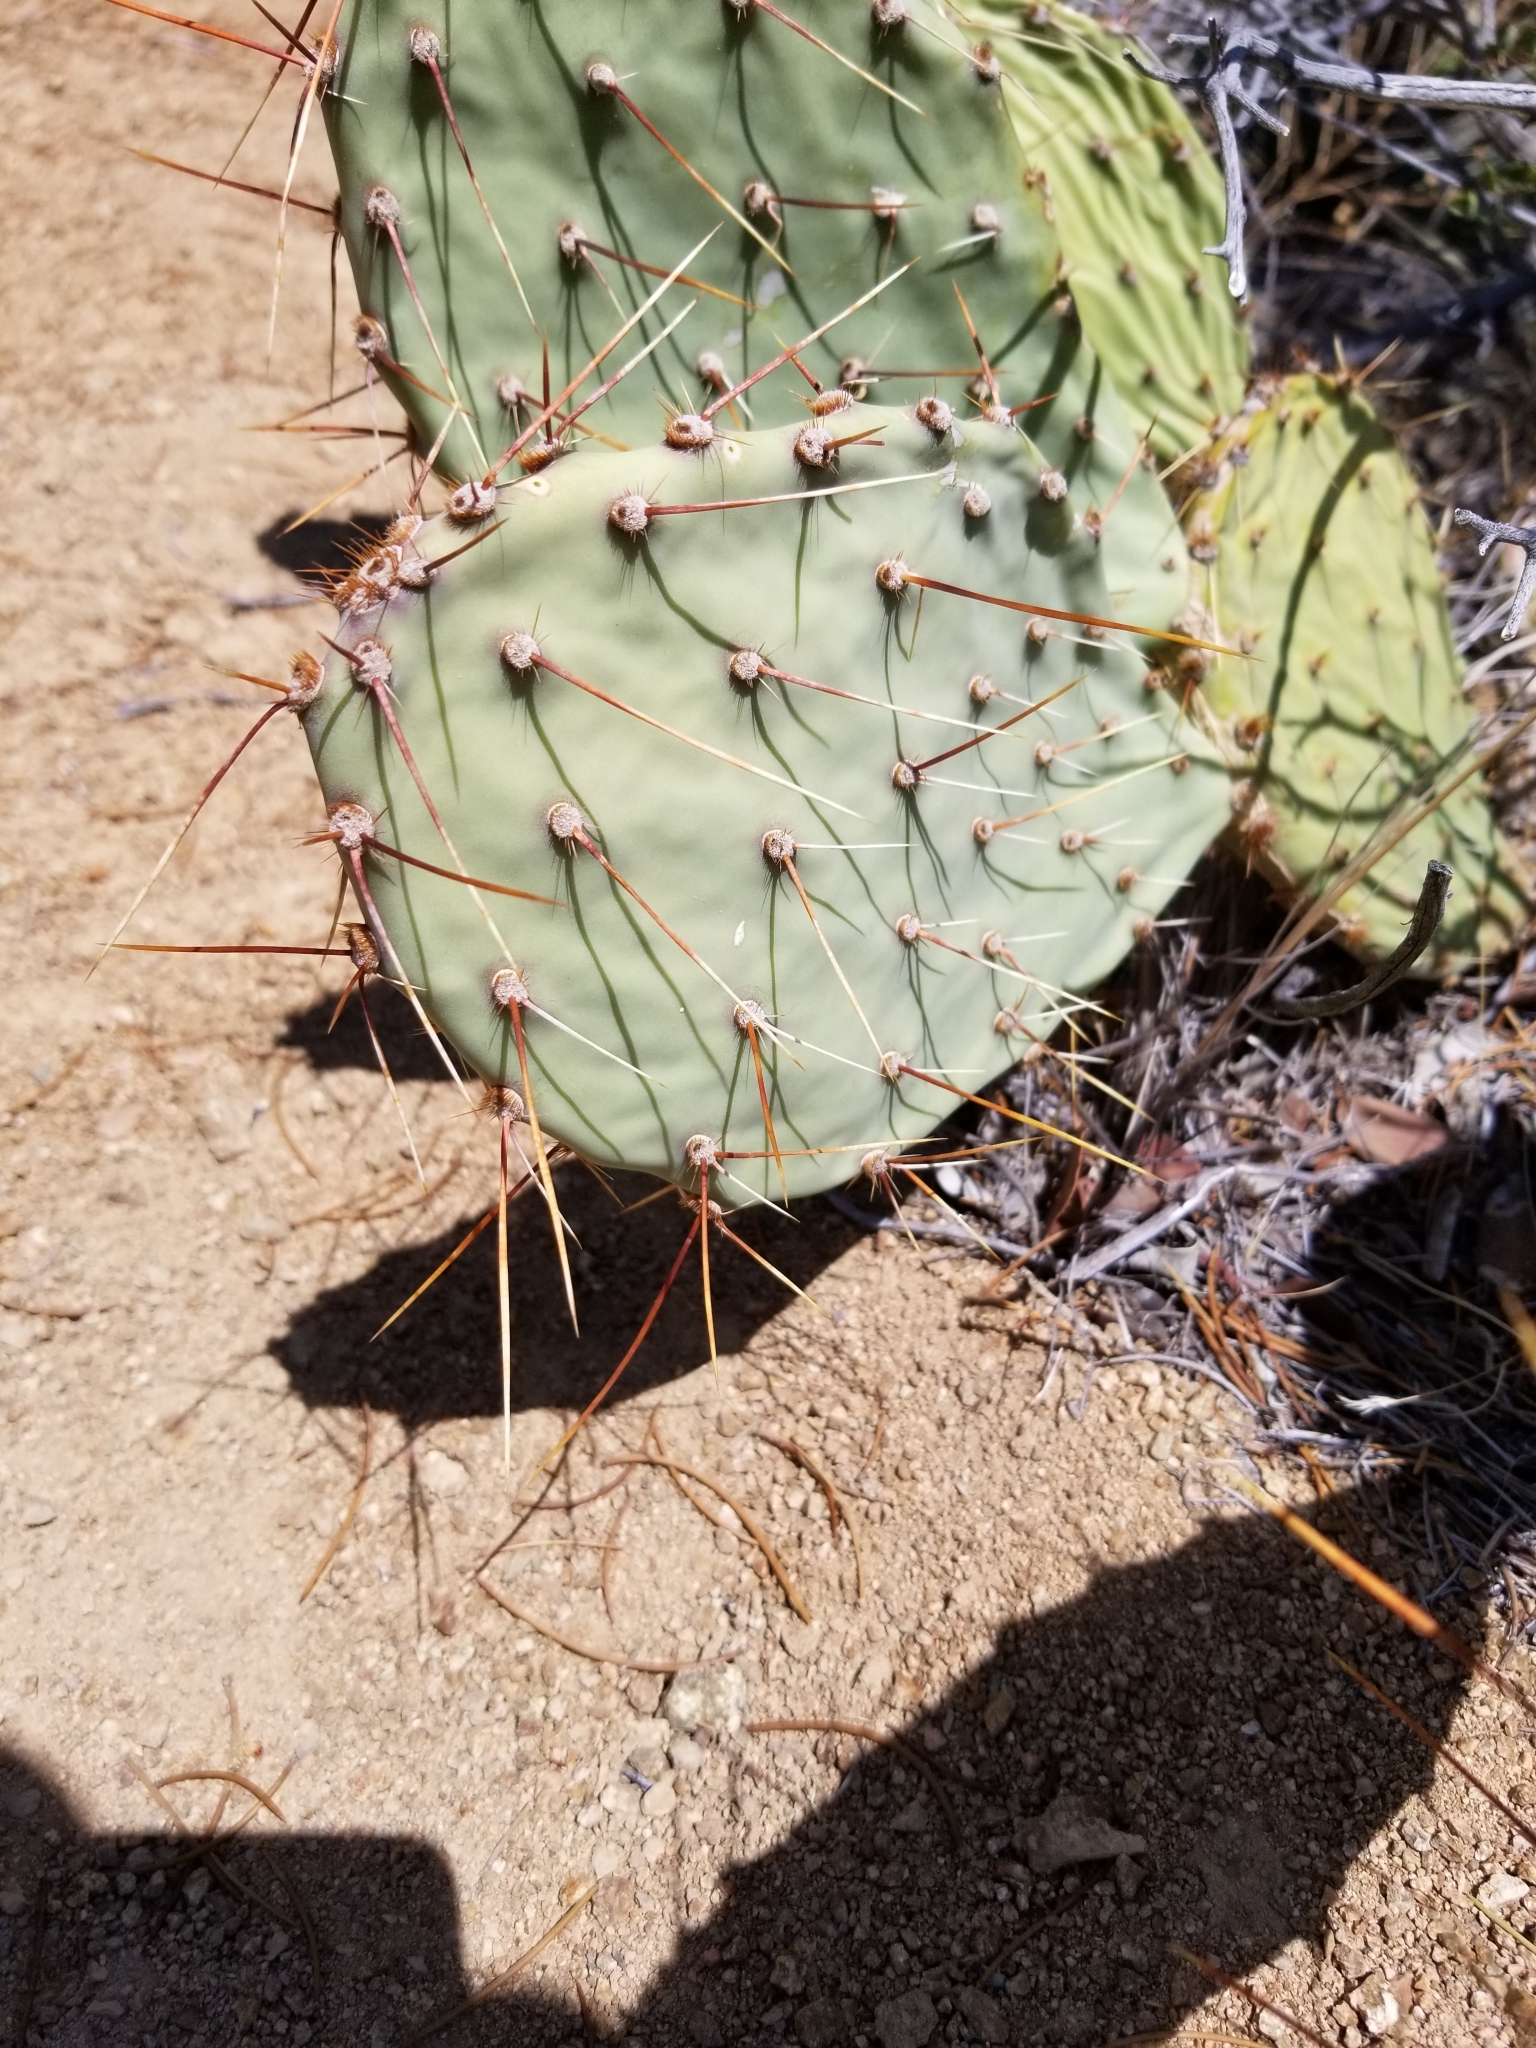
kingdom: Plantae
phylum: Tracheophyta
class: Magnoliopsida
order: Caryophyllales
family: Cactaceae
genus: Opuntia
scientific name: Opuntia phaeacantha
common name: New mexico prickly-pear
